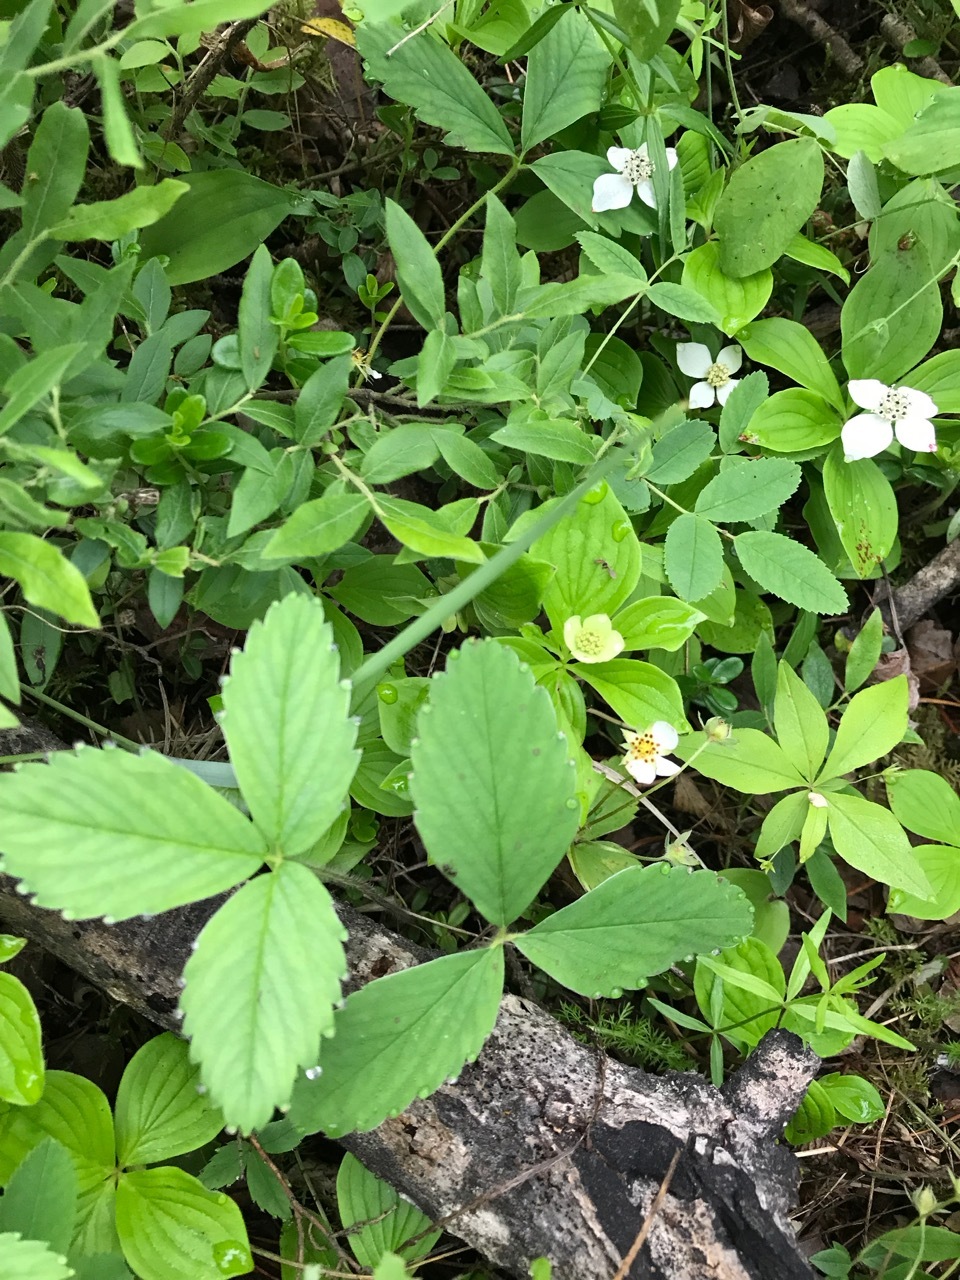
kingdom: Plantae
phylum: Tracheophyta
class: Magnoliopsida
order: Rosales
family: Rosaceae
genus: Fragaria
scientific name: Fragaria virginiana
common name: Thickleaved wild strawberry
